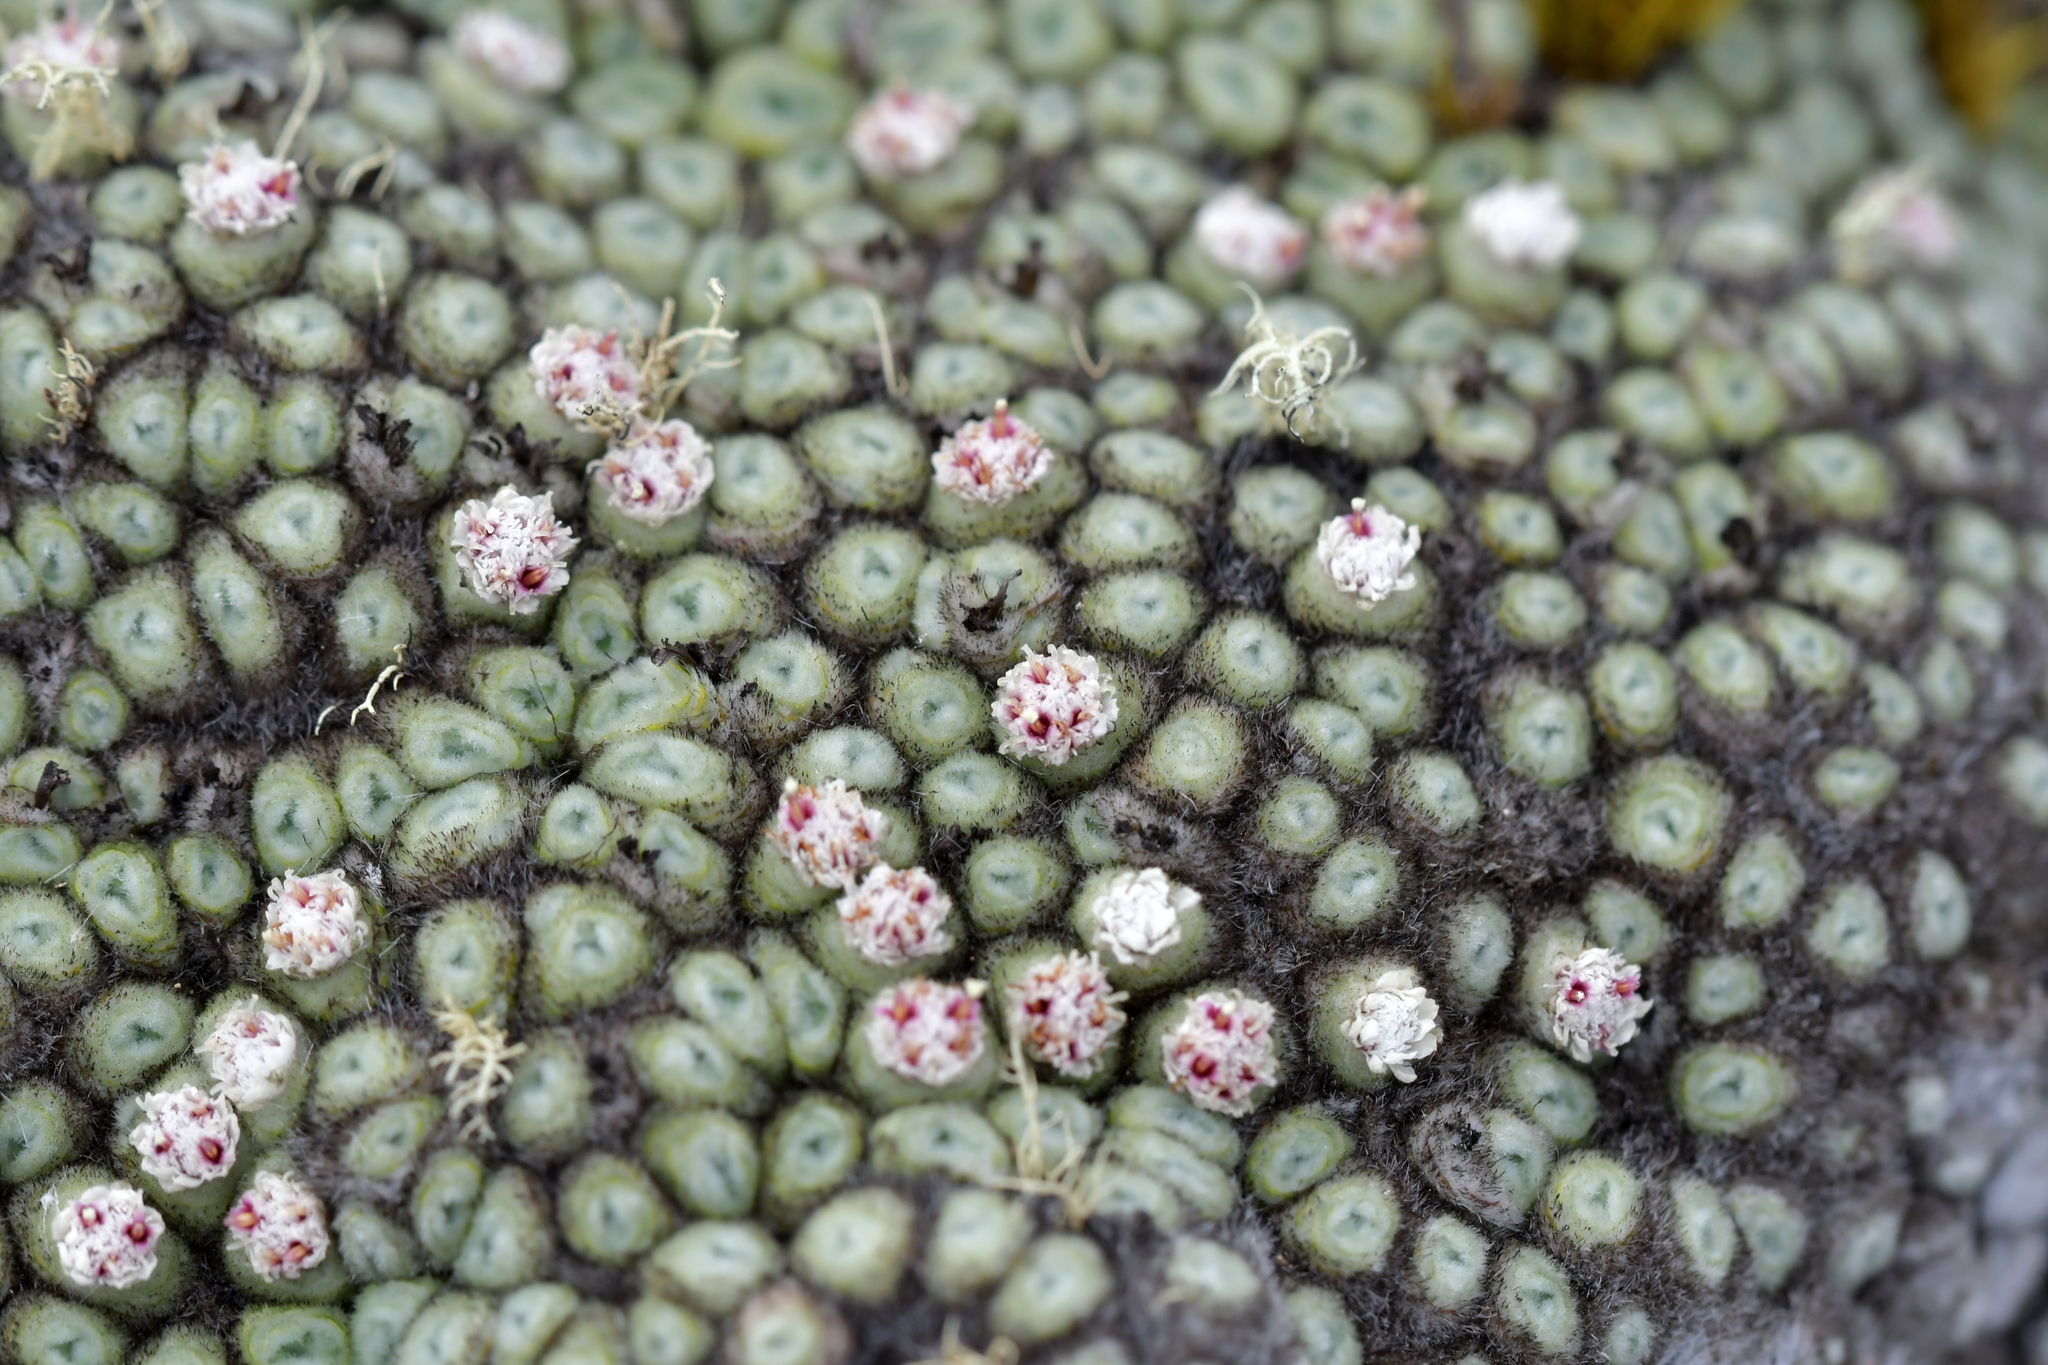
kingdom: Plantae
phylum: Tracheophyta
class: Magnoliopsida
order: Asterales
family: Asteraceae
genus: Raoulia
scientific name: Raoulia rubra
